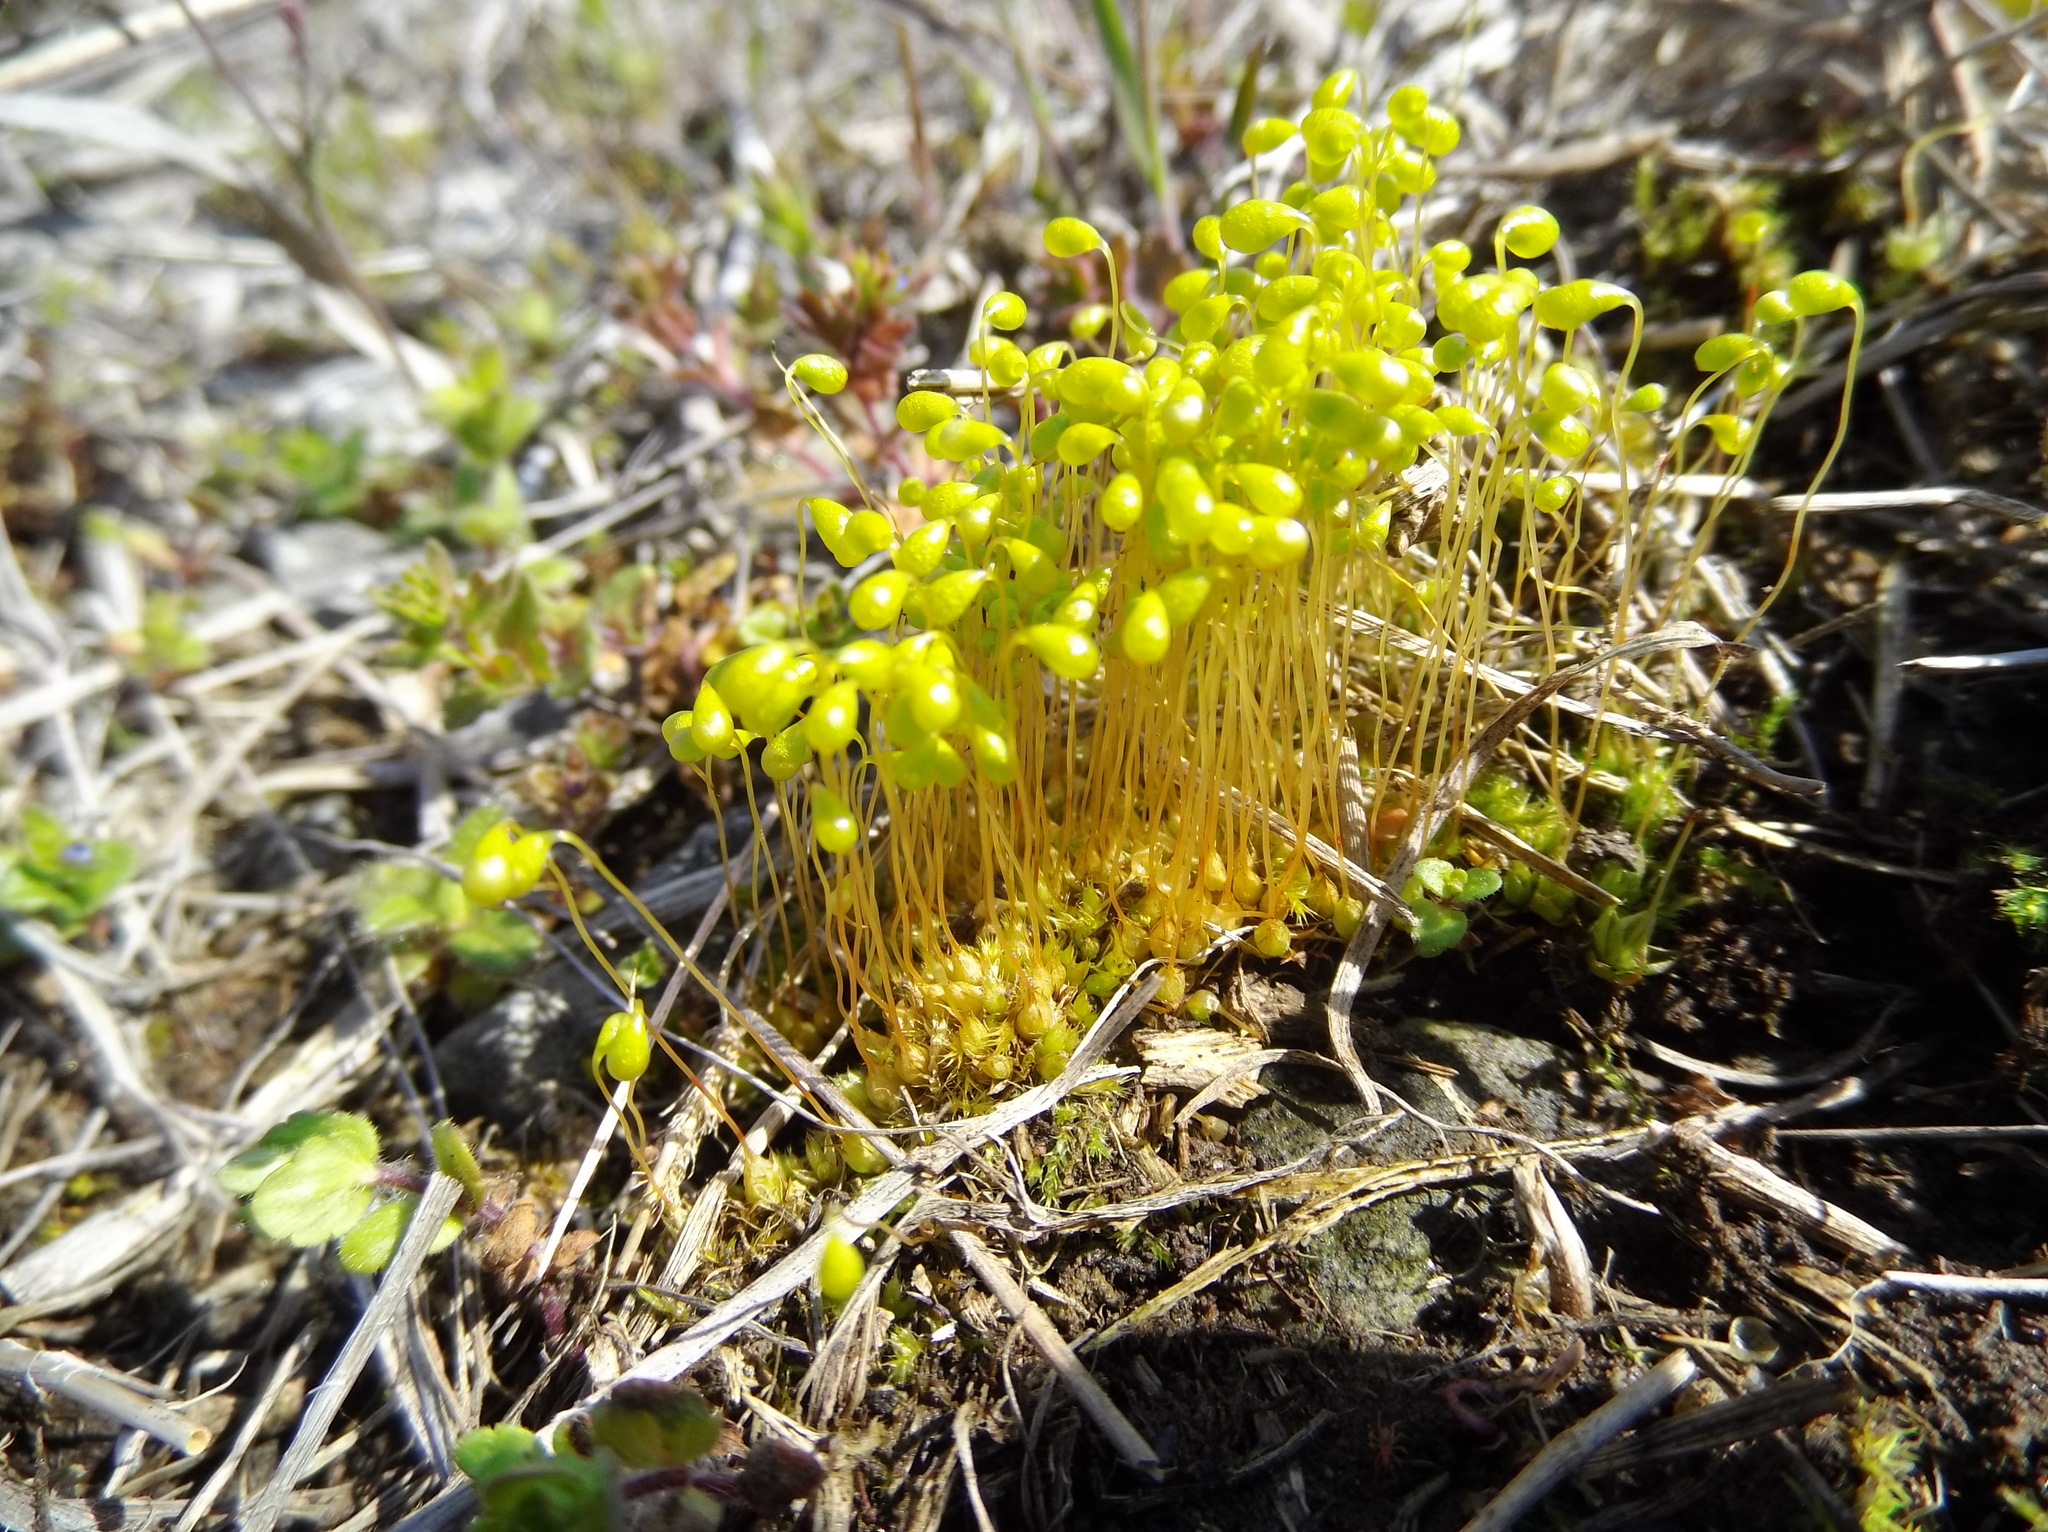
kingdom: Plantae
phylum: Bryophyta
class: Bryopsida
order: Funariales
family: Funariaceae
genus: Funaria
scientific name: Funaria hygrometrica
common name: Common cord moss
